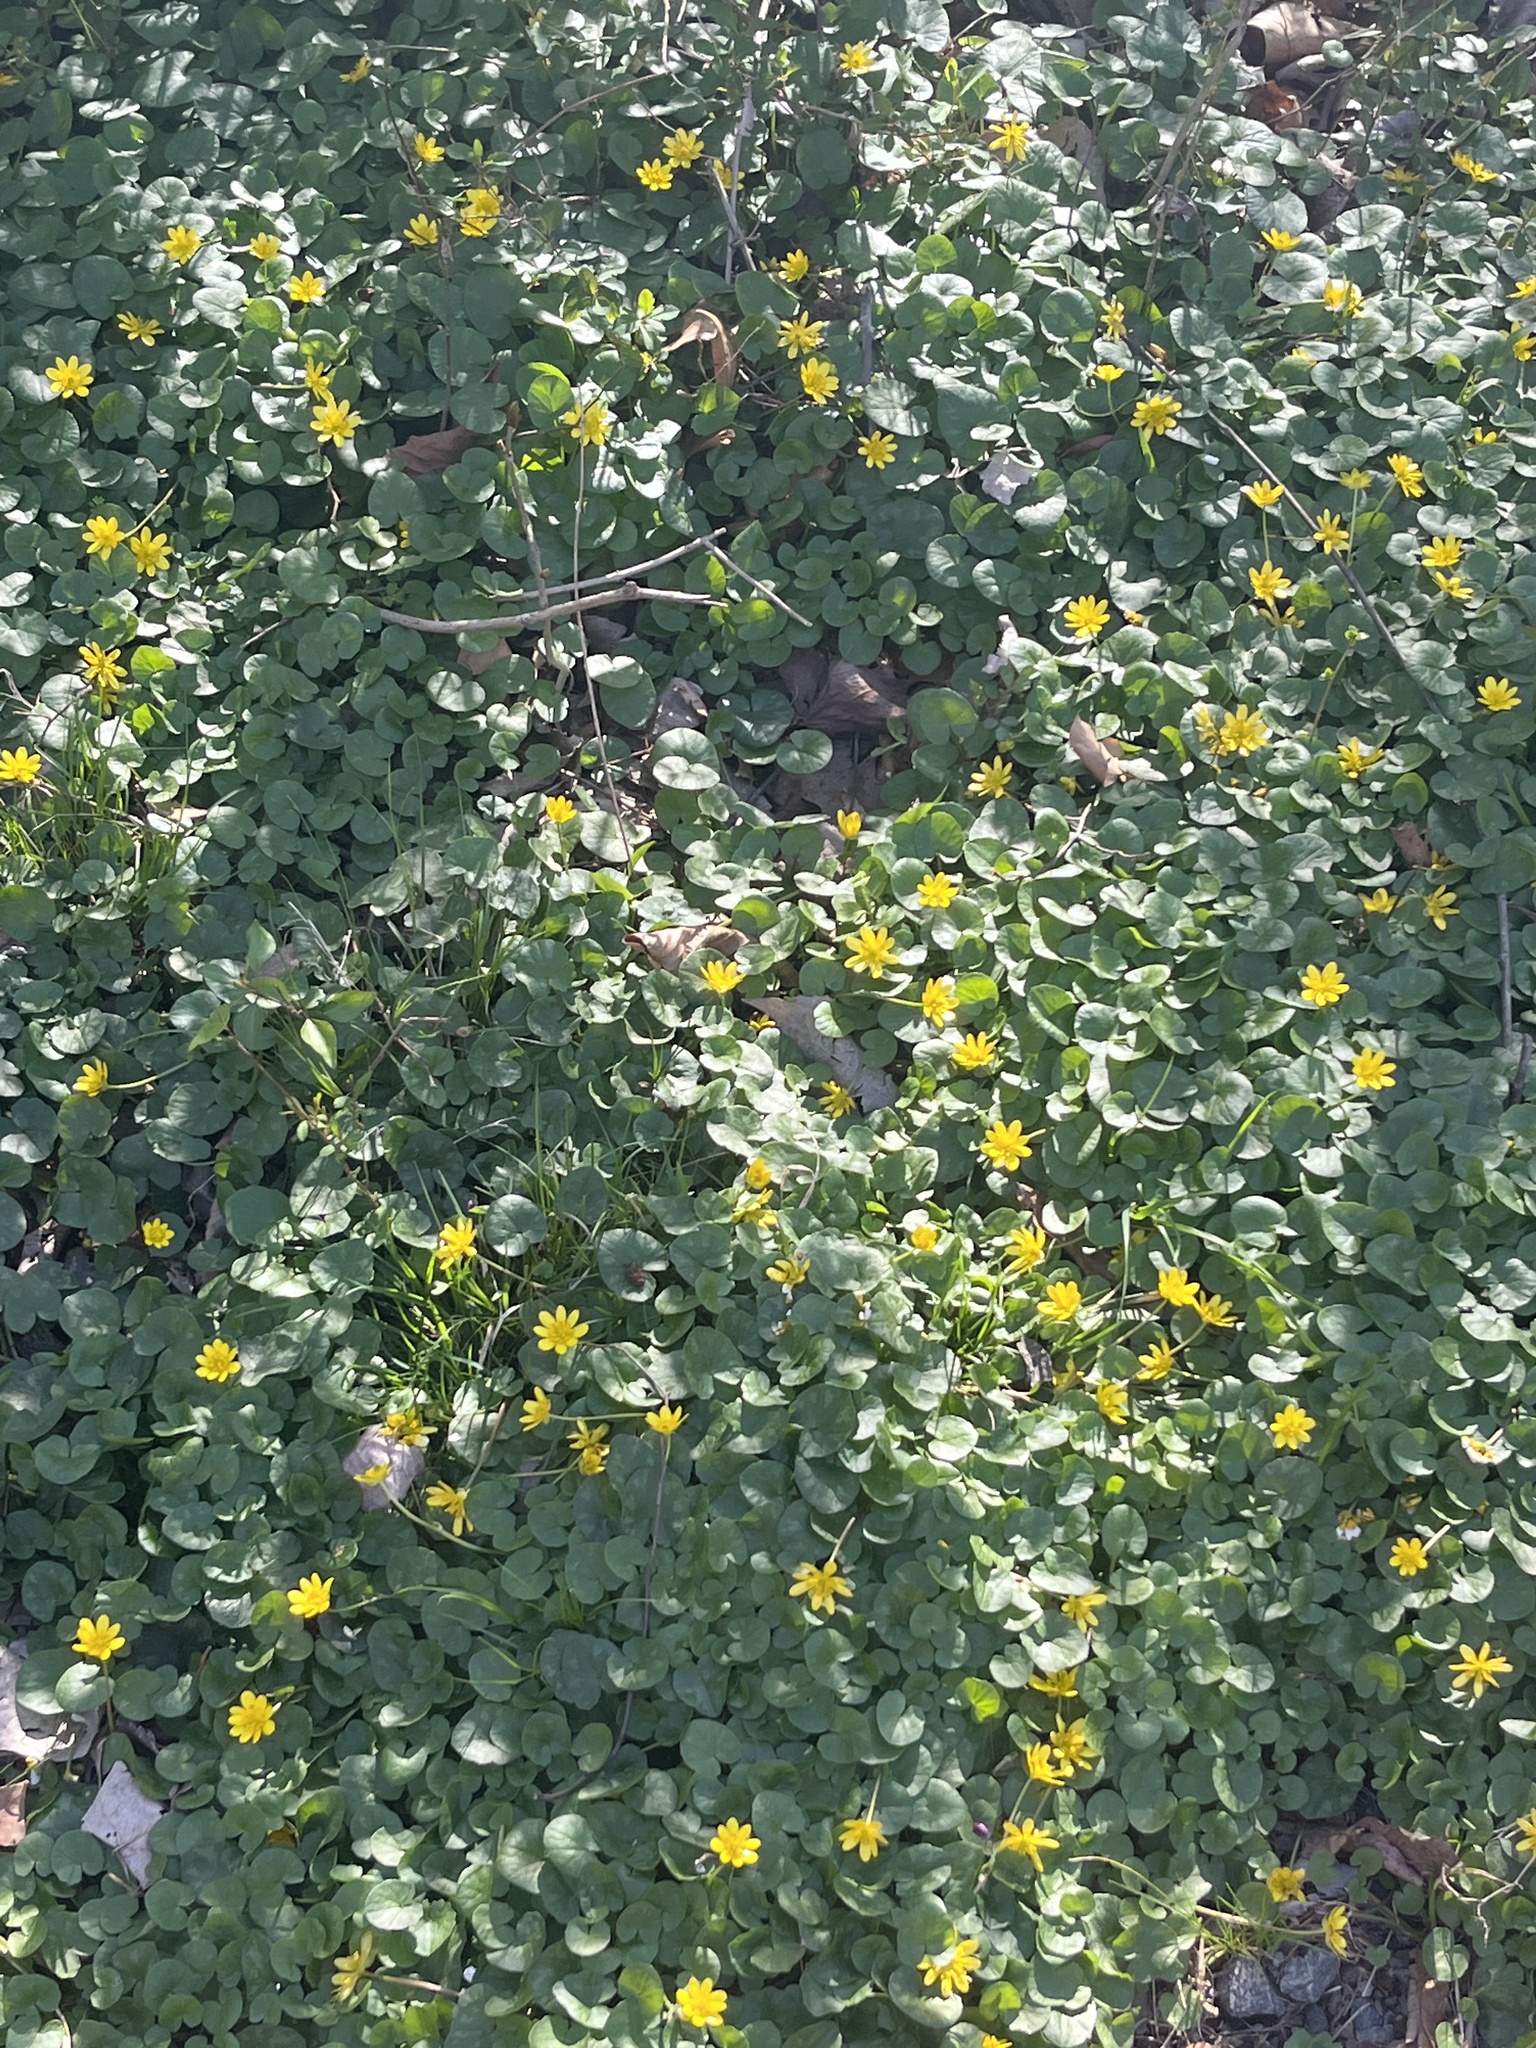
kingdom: Plantae
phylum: Tracheophyta
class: Magnoliopsida
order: Ranunculales
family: Ranunculaceae
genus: Ficaria
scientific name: Ficaria verna
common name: Lesser celandine
